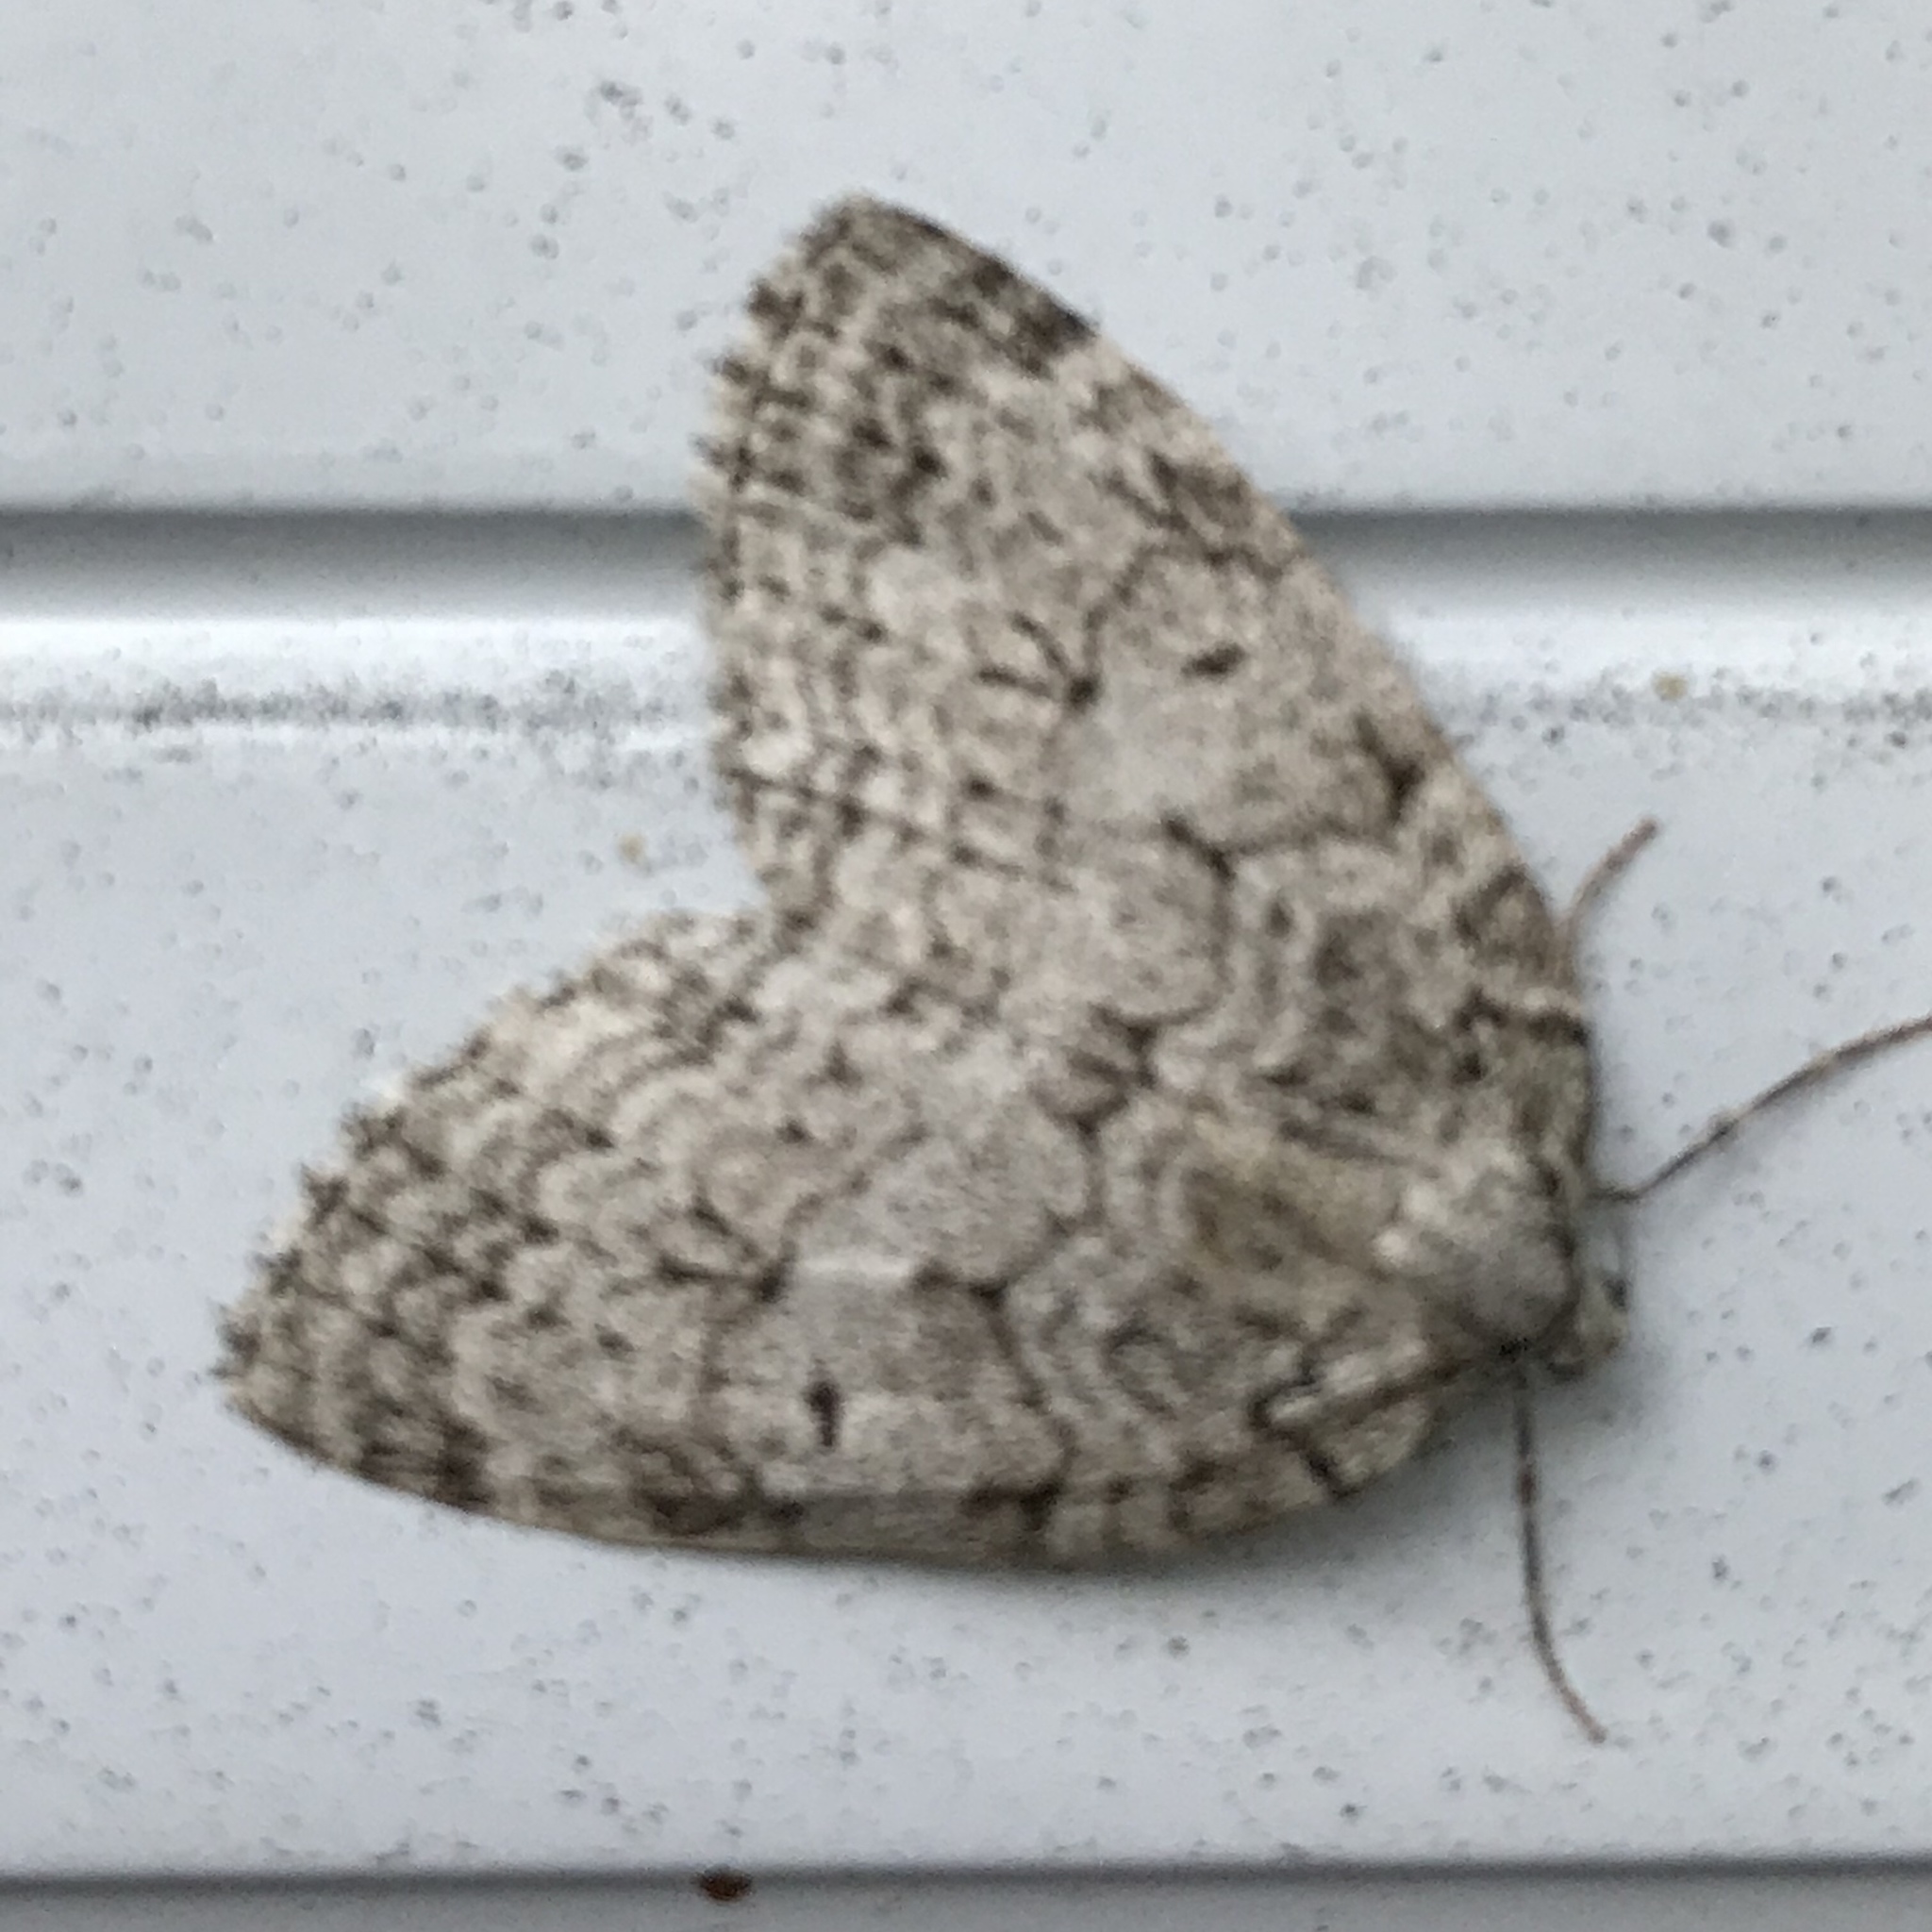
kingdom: Animalia
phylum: Arthropoda
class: Insecta
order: Lepidoptera
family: Geometridae
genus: Epirrita
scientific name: Epirrita autumnata
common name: Autumnal moth
